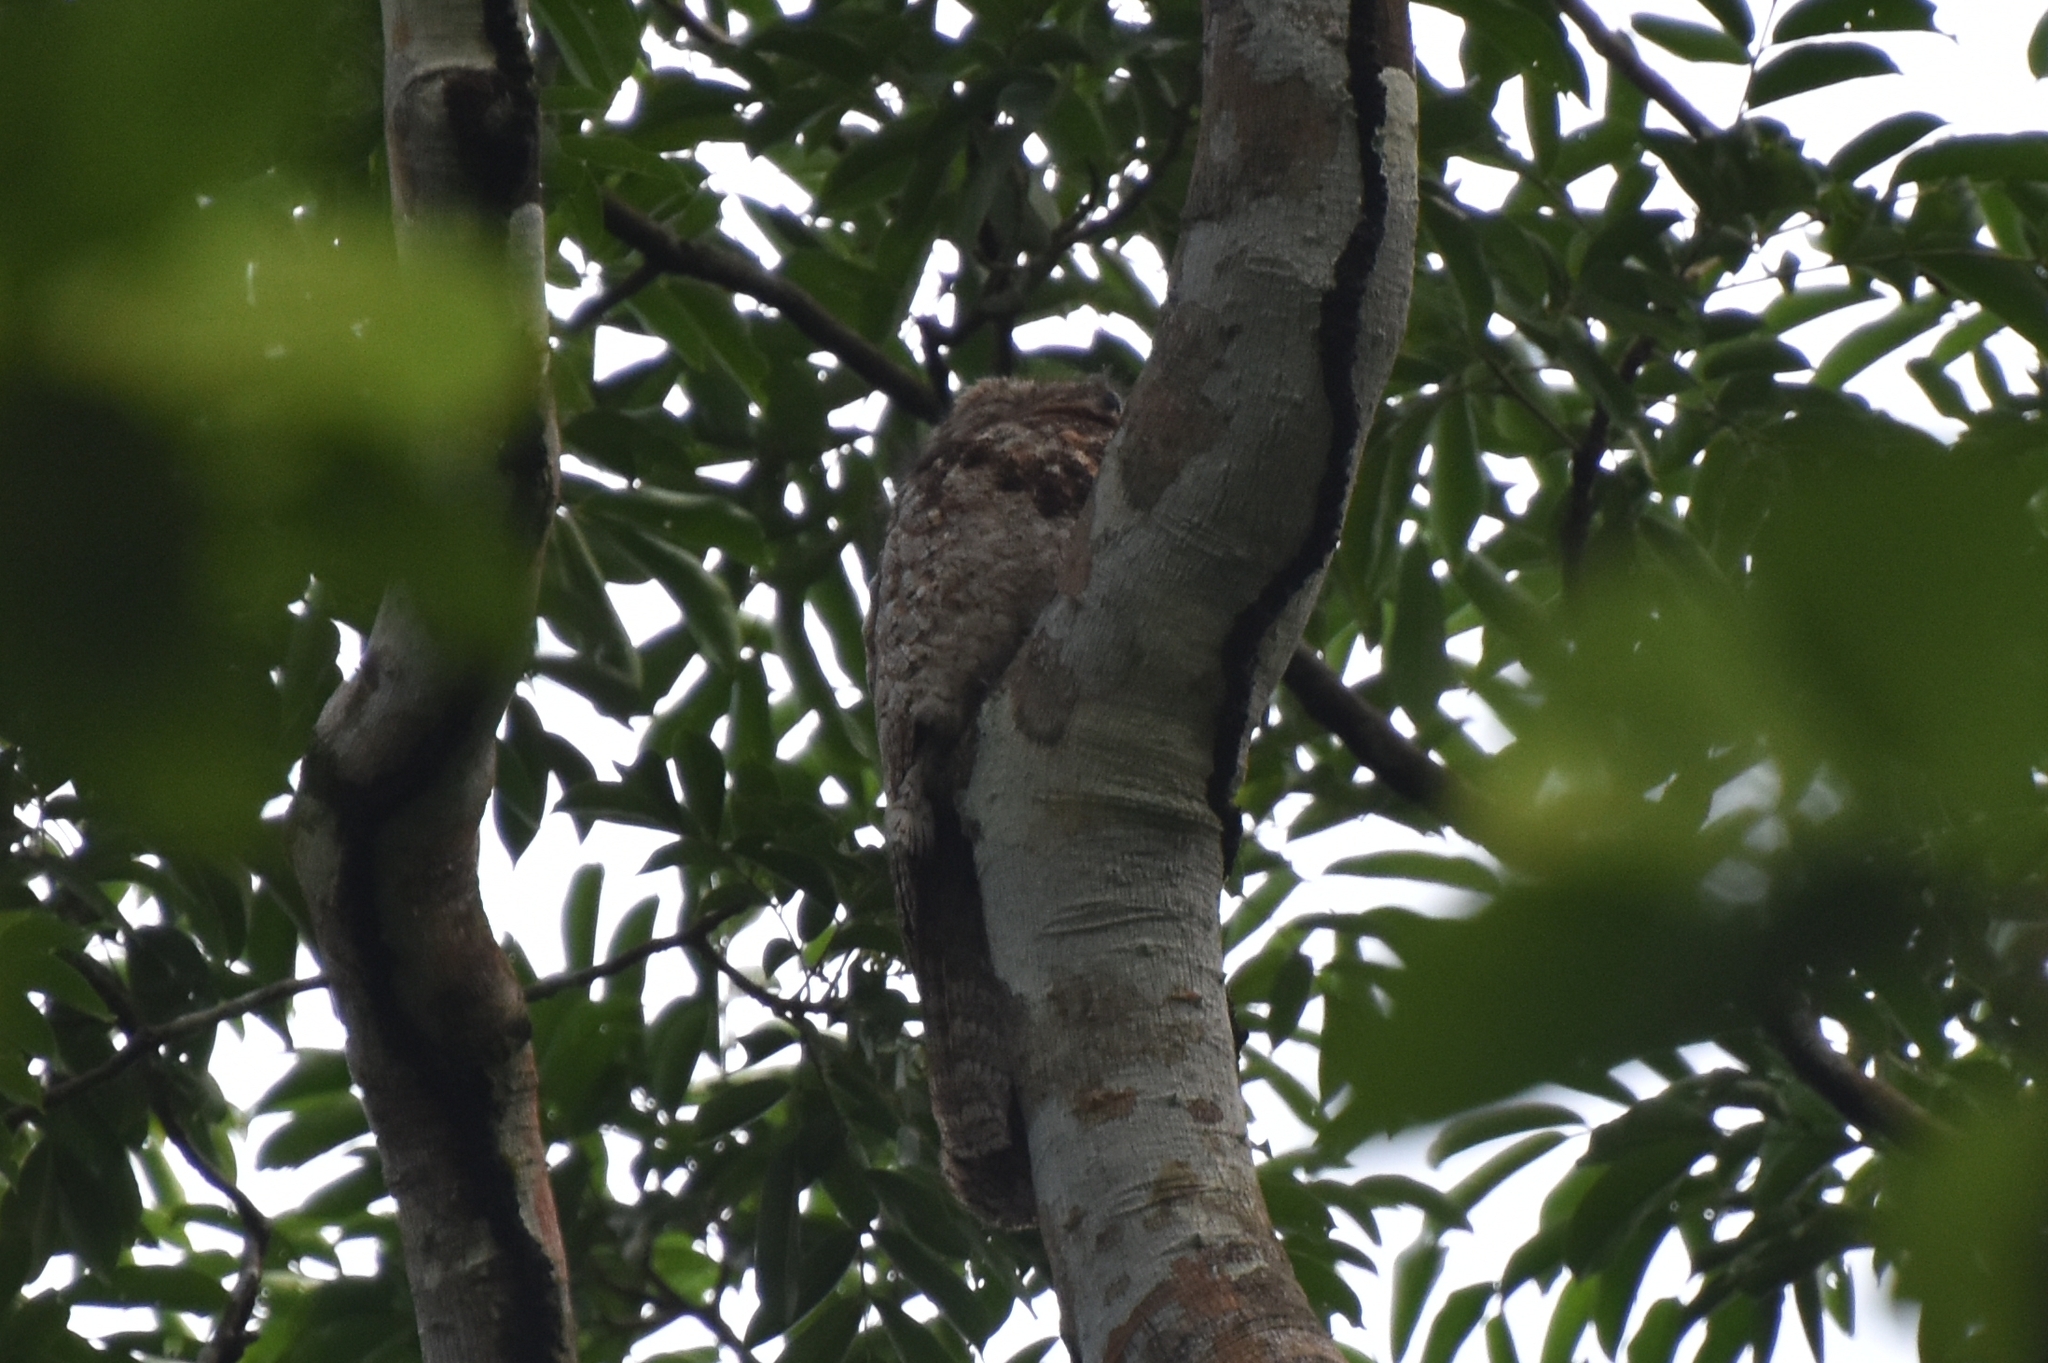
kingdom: Animalia
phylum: Chordata
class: Aves
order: Nyctibiiformes
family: Nyctibiidae
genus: Nyctibius
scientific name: Nyctibius grandis
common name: Great potoo
